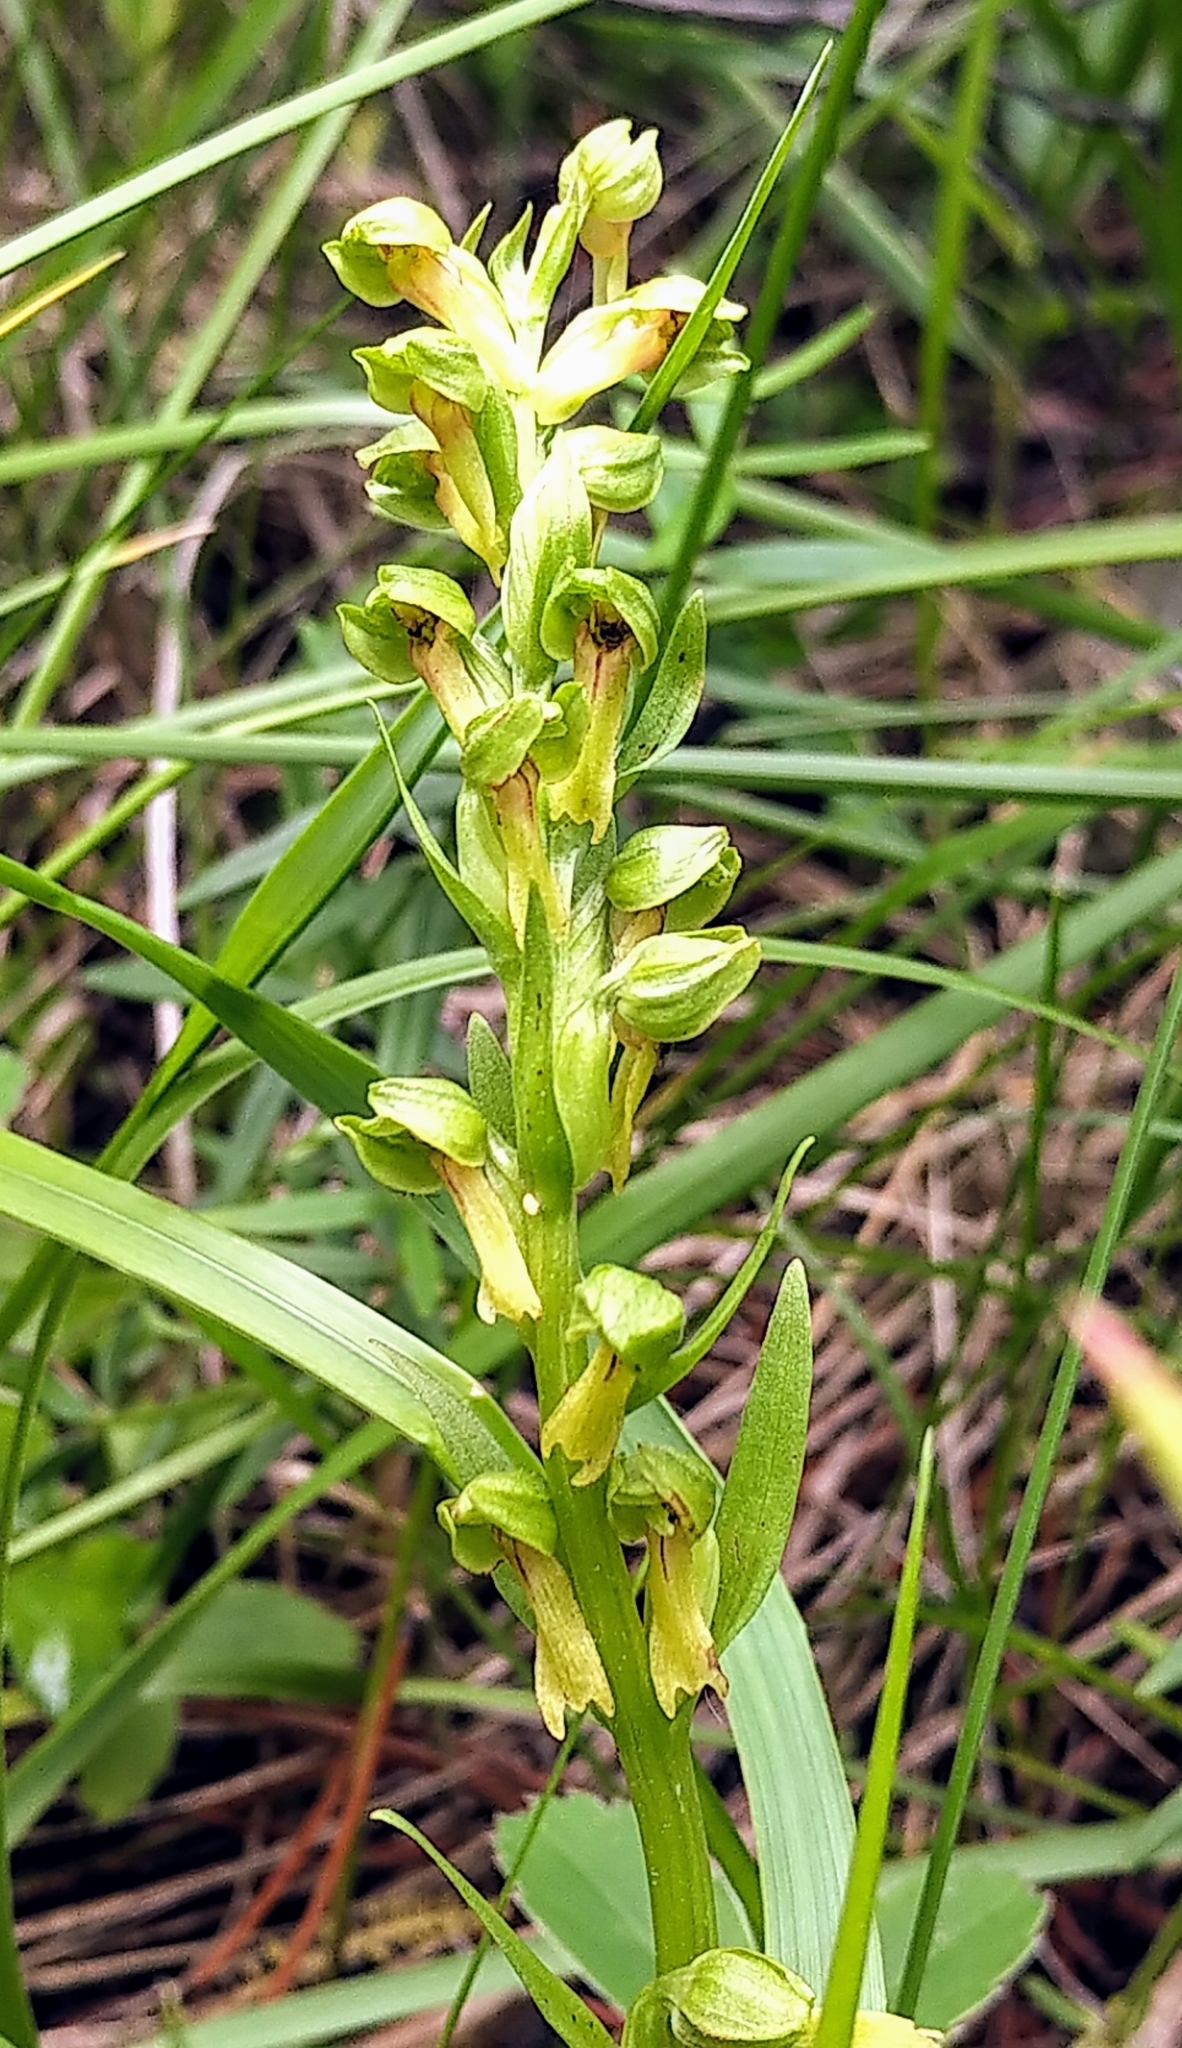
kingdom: Plantae
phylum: Tracheophyta
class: Liliopsida
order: Asparagales
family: Orchidaceae
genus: Dactylorhiza
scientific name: Dactylorhiza viridis
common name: Longbract frog orchid
